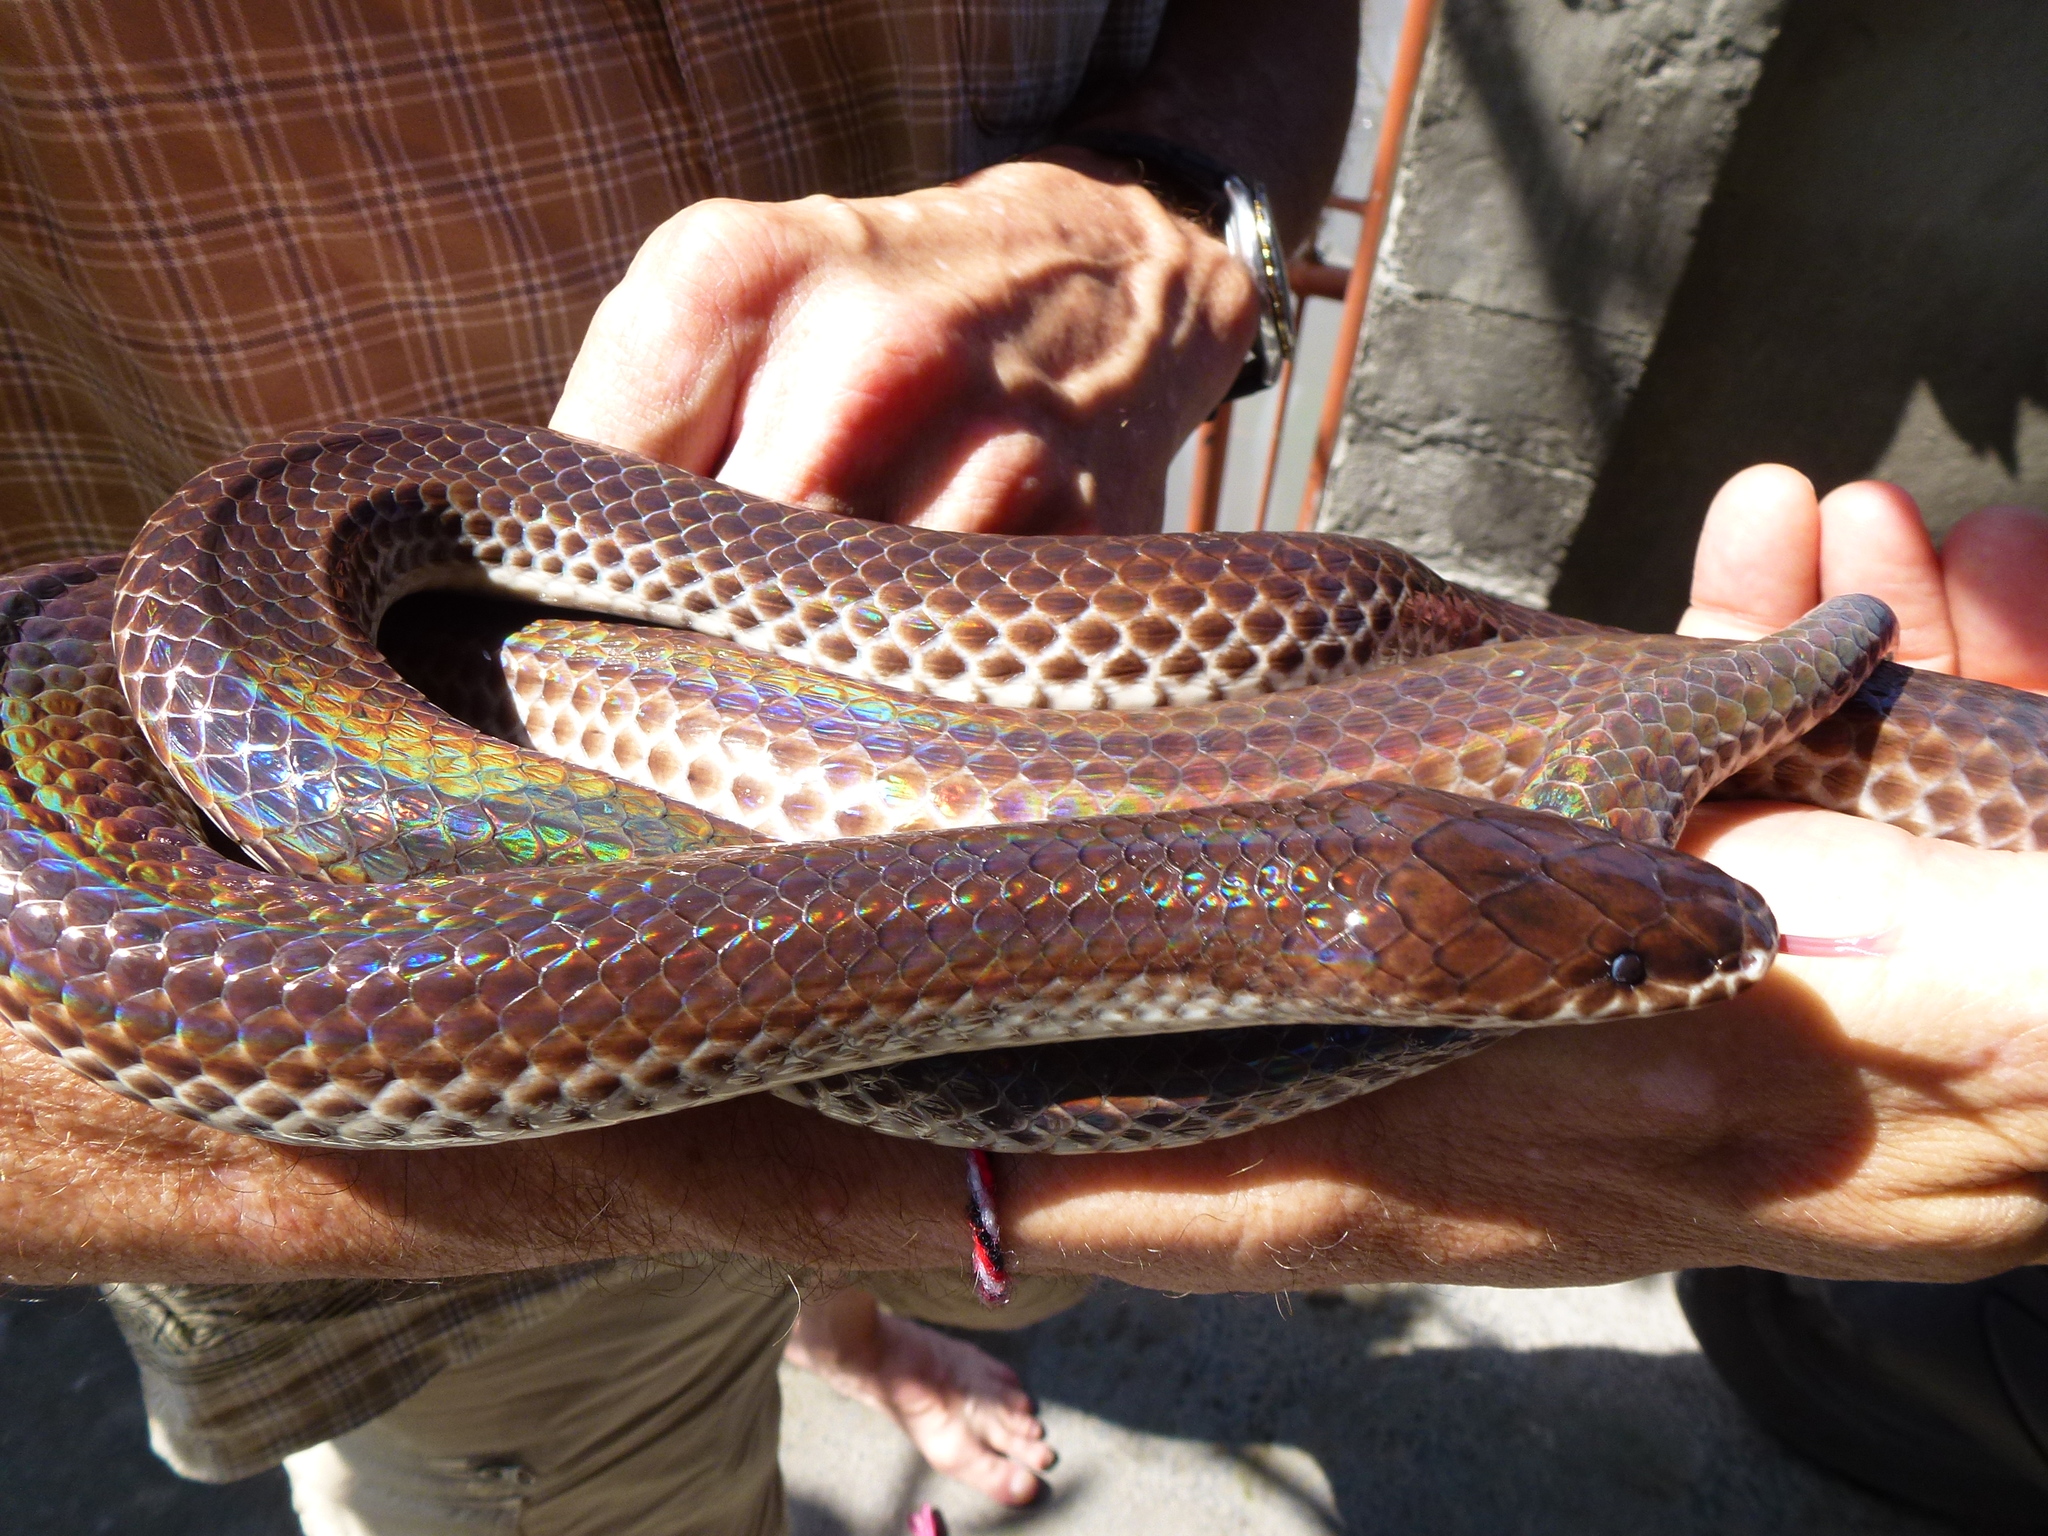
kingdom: Animalia
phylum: Chordata
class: Squamata
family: Xenopeltidae
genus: Xenopeltis
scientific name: Xenopeltis unicolor
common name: Sunbeam snake
